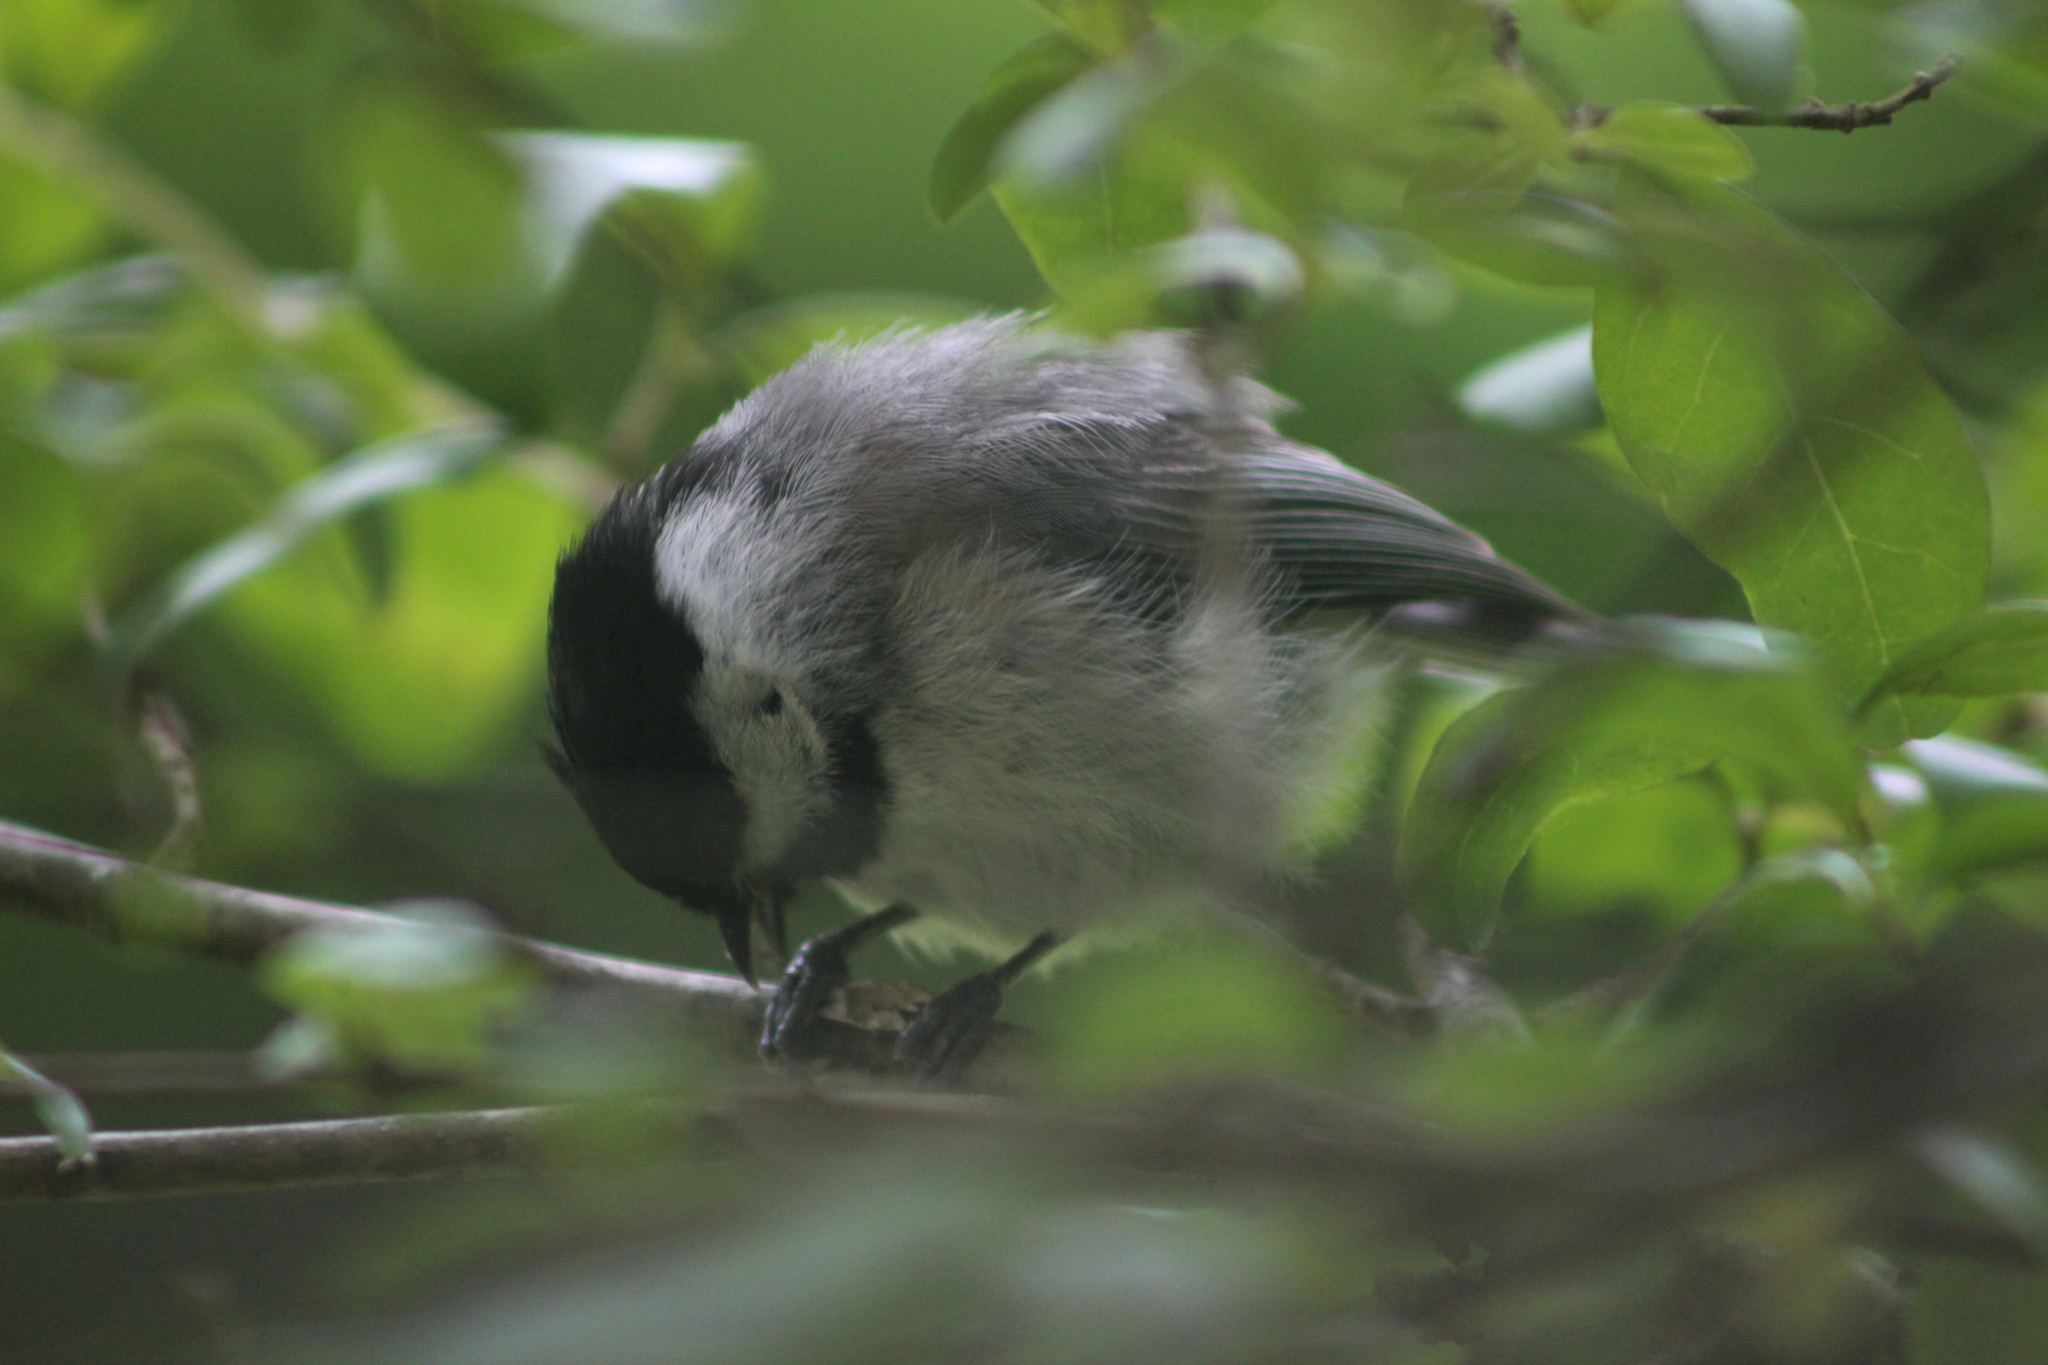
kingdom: Animalia
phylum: Chordata
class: Aves
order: Passeriformes
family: Paridae
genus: Poecile
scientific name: Poecile carolinensis
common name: Carolina chickadee
